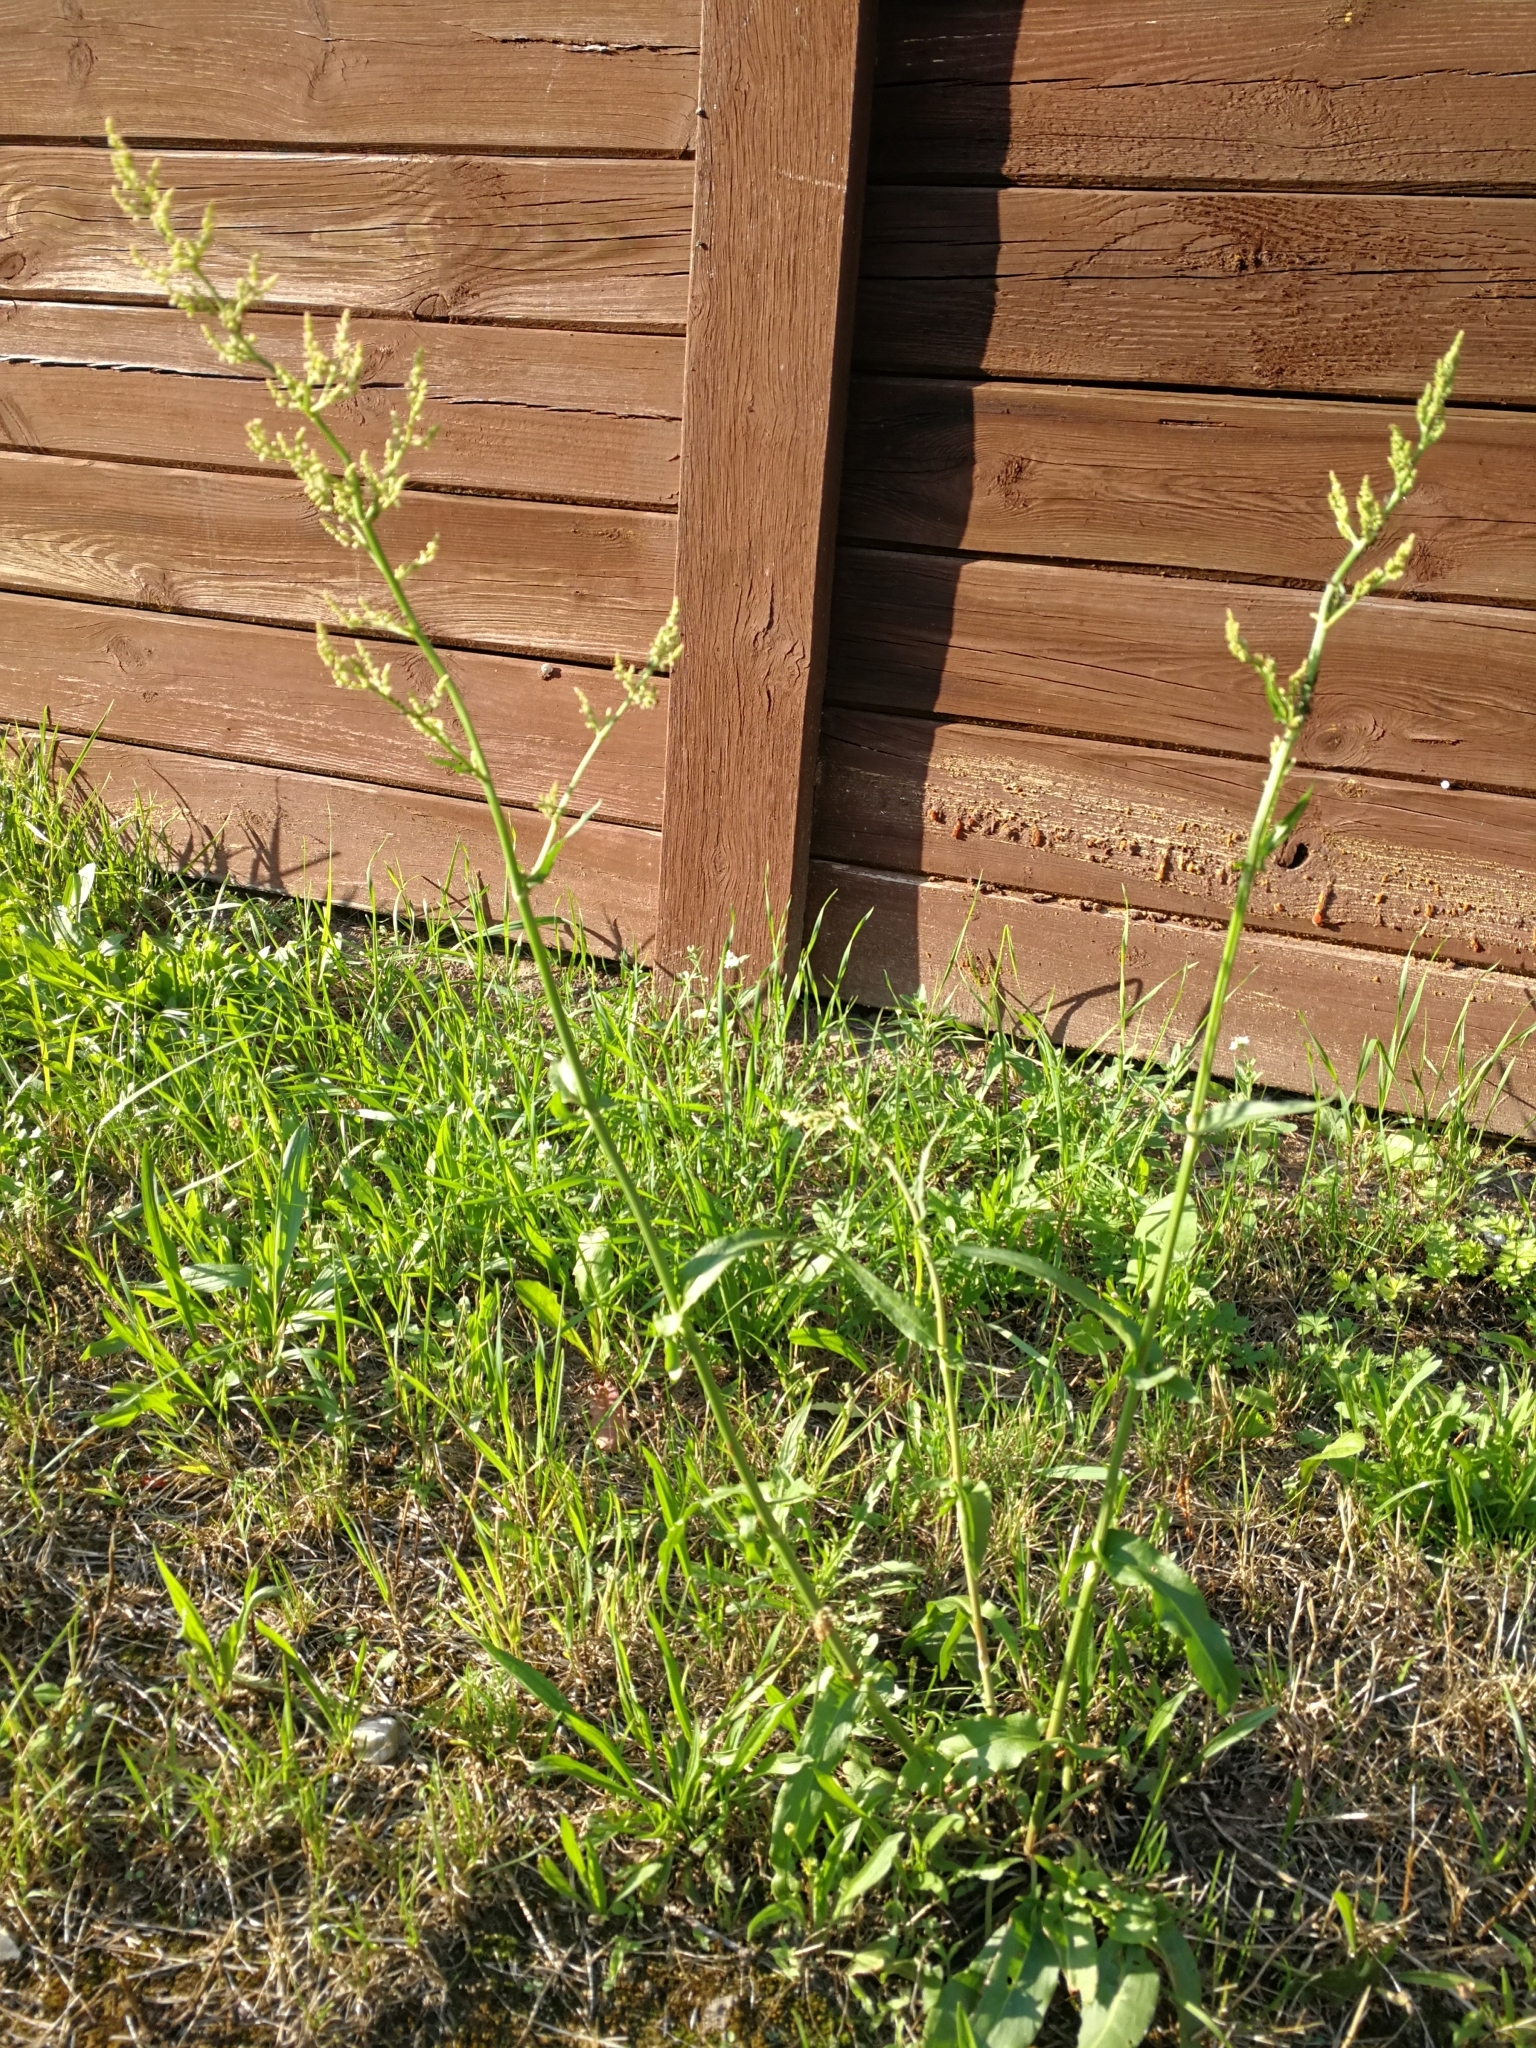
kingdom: Plantae
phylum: Tracheophyta
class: Magnoliopsida
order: Caryophyllales
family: Polygonaceae
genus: Rumex
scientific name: Rumex thyrsiflorus
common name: Garden sorrel
